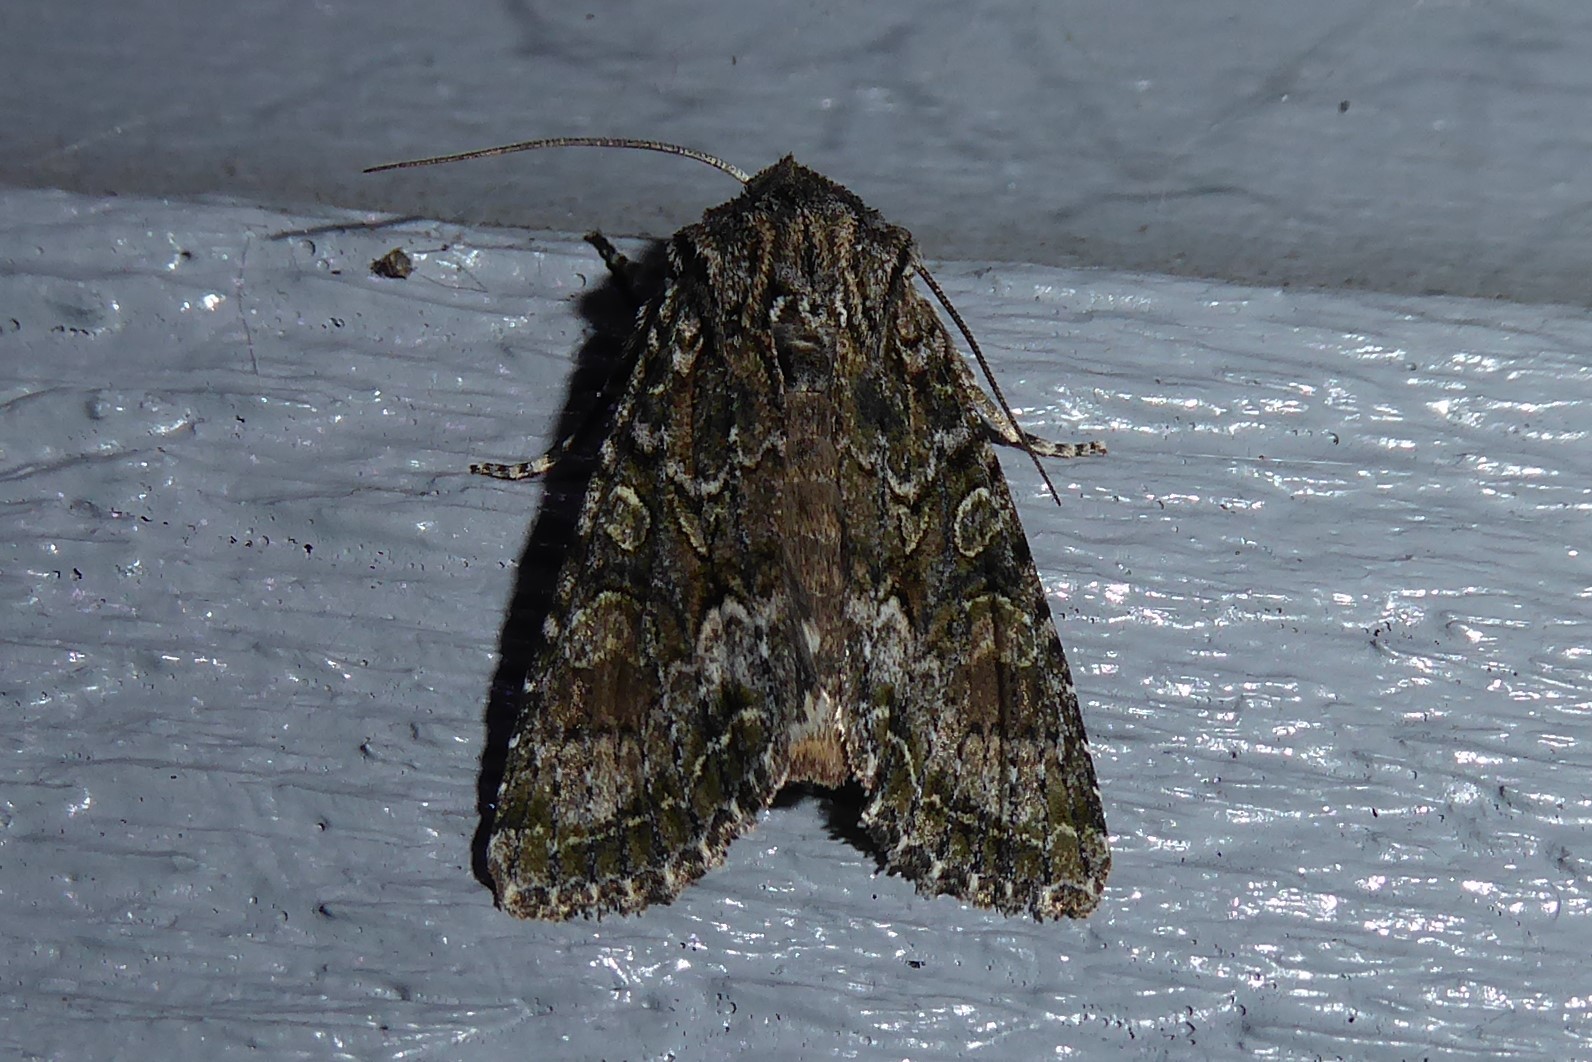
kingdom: Animalia
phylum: Arthropoda
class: Insecta
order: Lepidoptera
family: Noctuidae
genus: Ichneutica
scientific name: Ichneutica mutans
